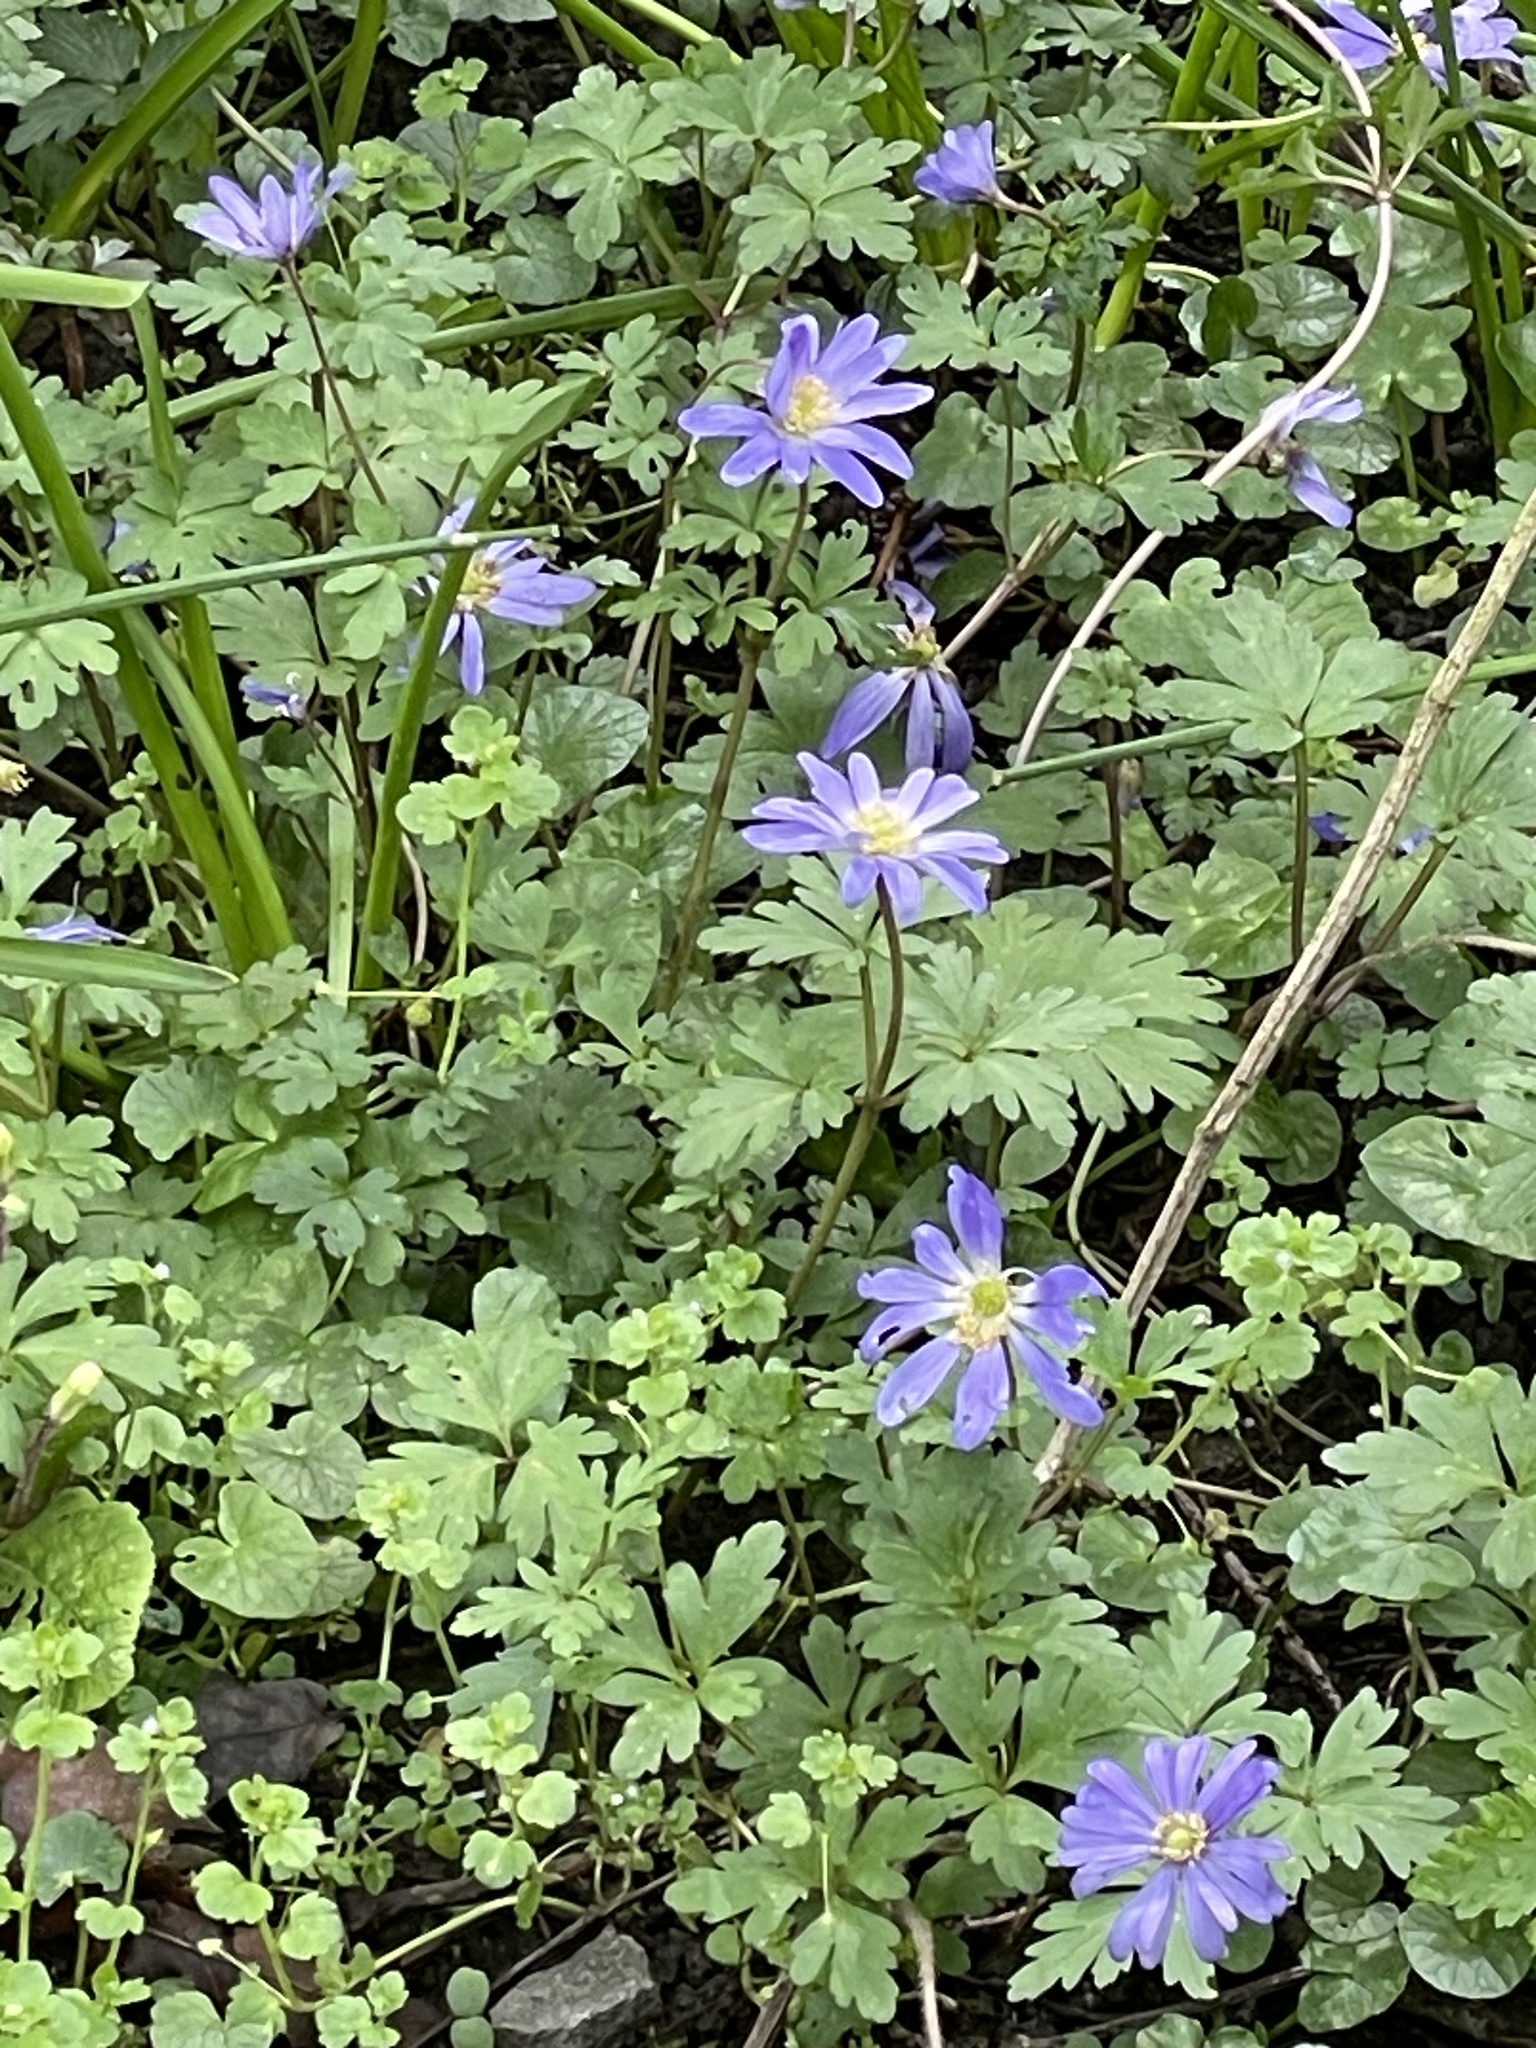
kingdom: Plantae
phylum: Tracheophyta
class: Magnoliopsida
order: Ranunculales
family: Ranunculaceae
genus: Anemone
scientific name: Anemone apennina
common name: Blue anemone
